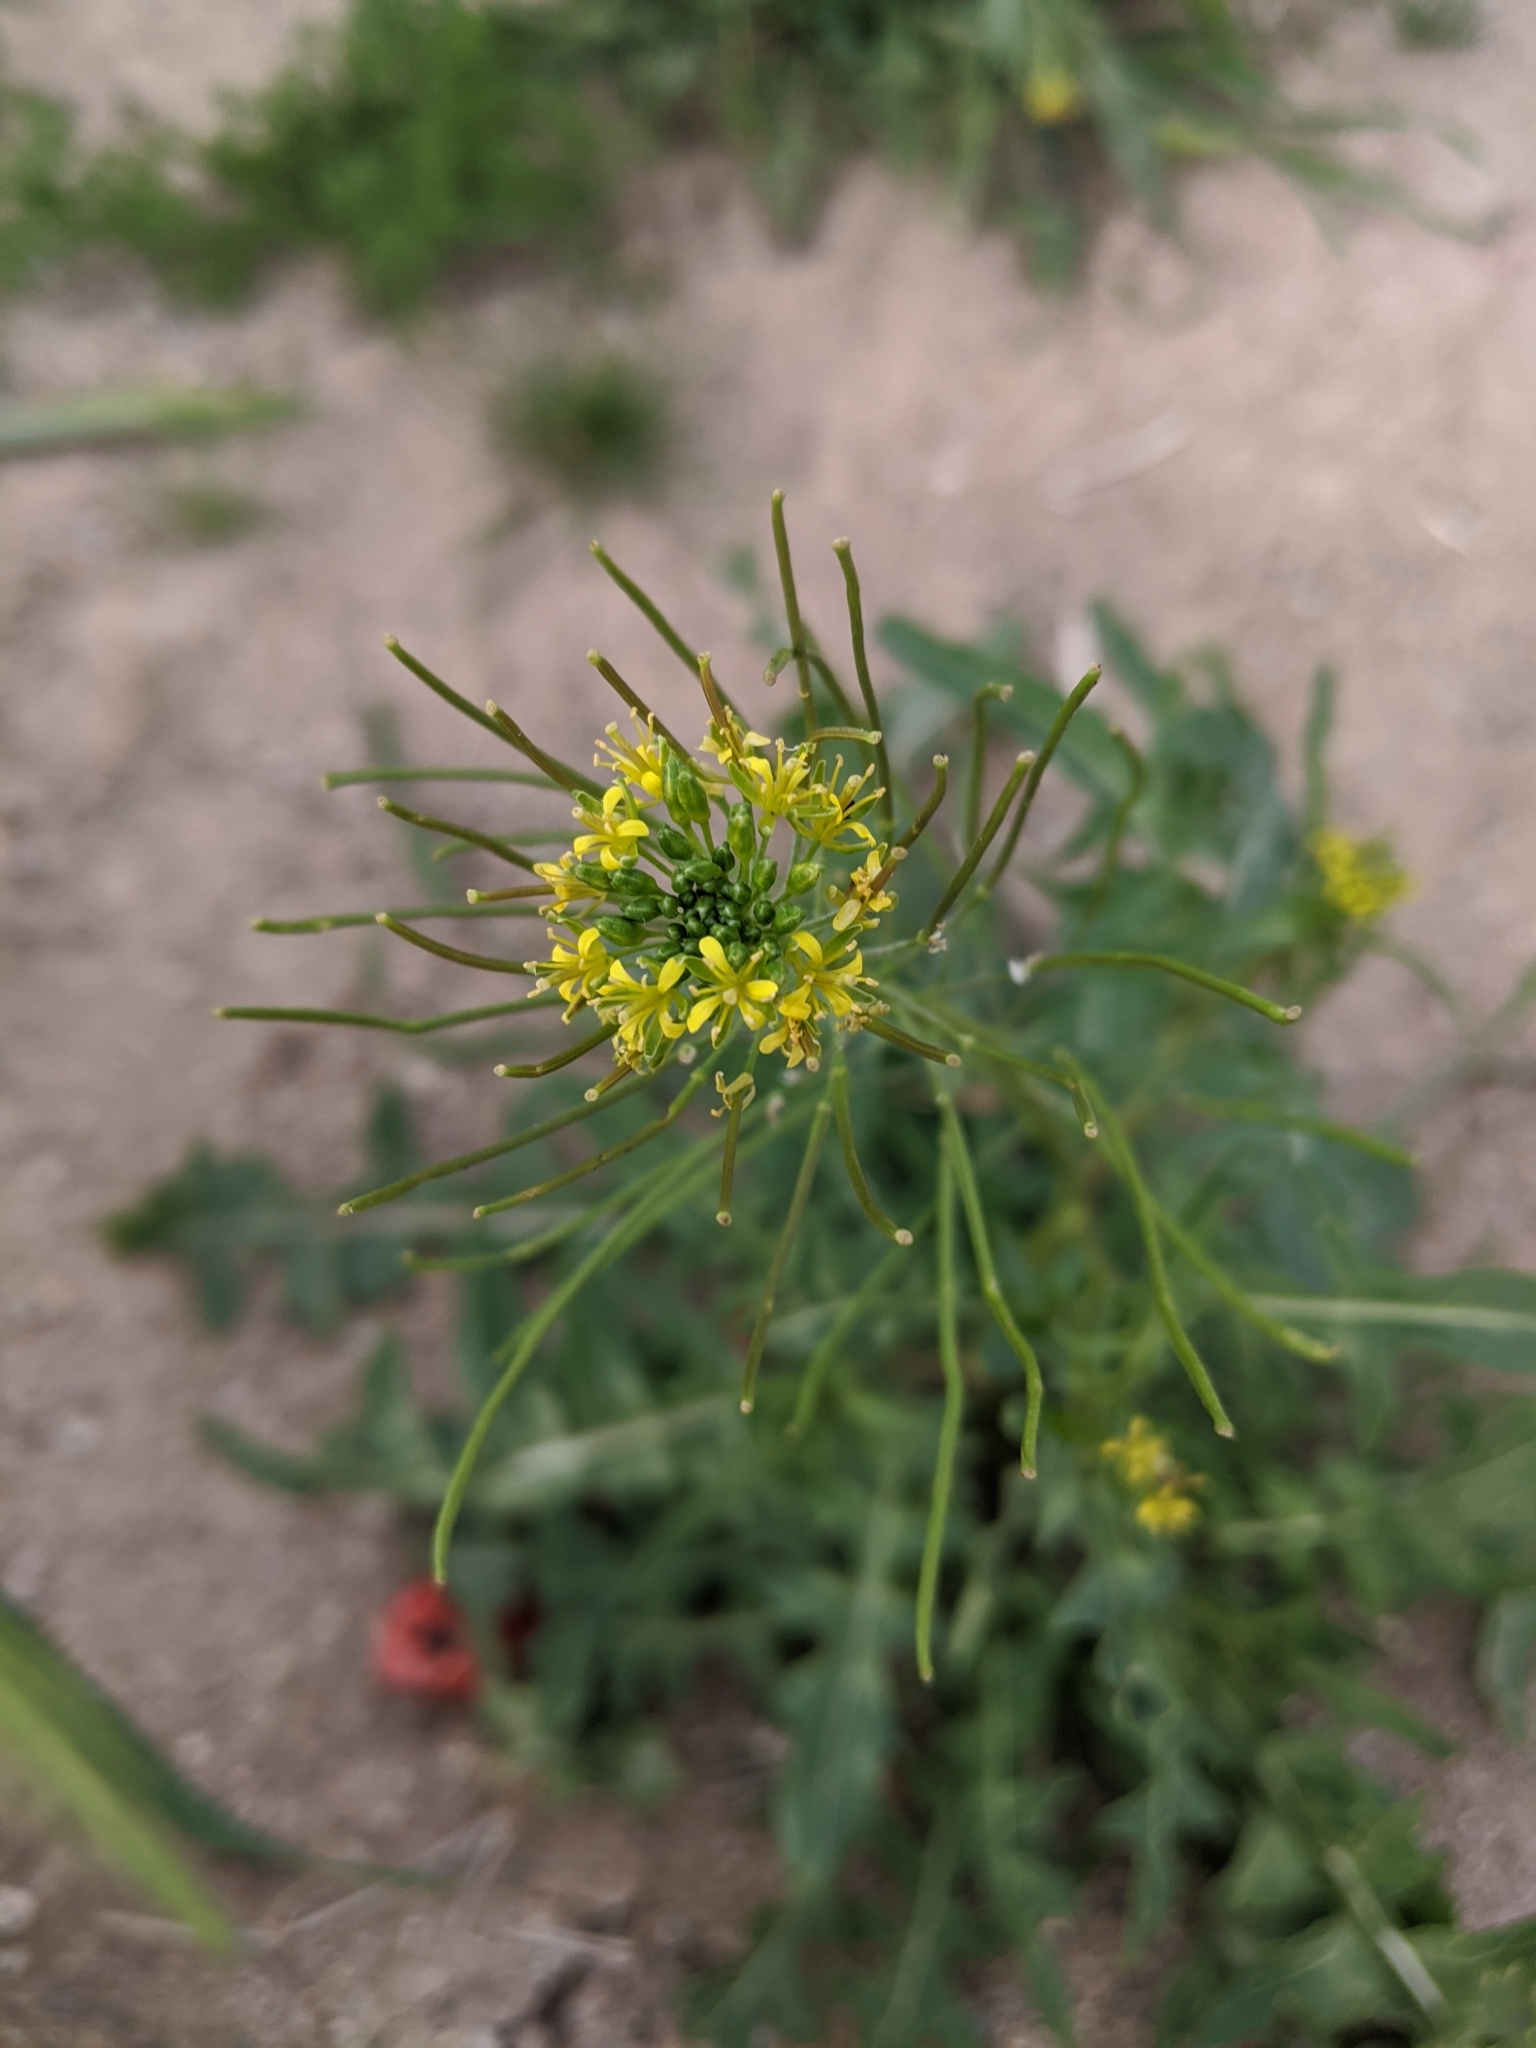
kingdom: Plantae
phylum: Tracheophyta
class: Magnoliopsida
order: Brassicales
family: Brassicaceae
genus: Sisymbrium
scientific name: Sisymbrium irio
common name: London rocket
